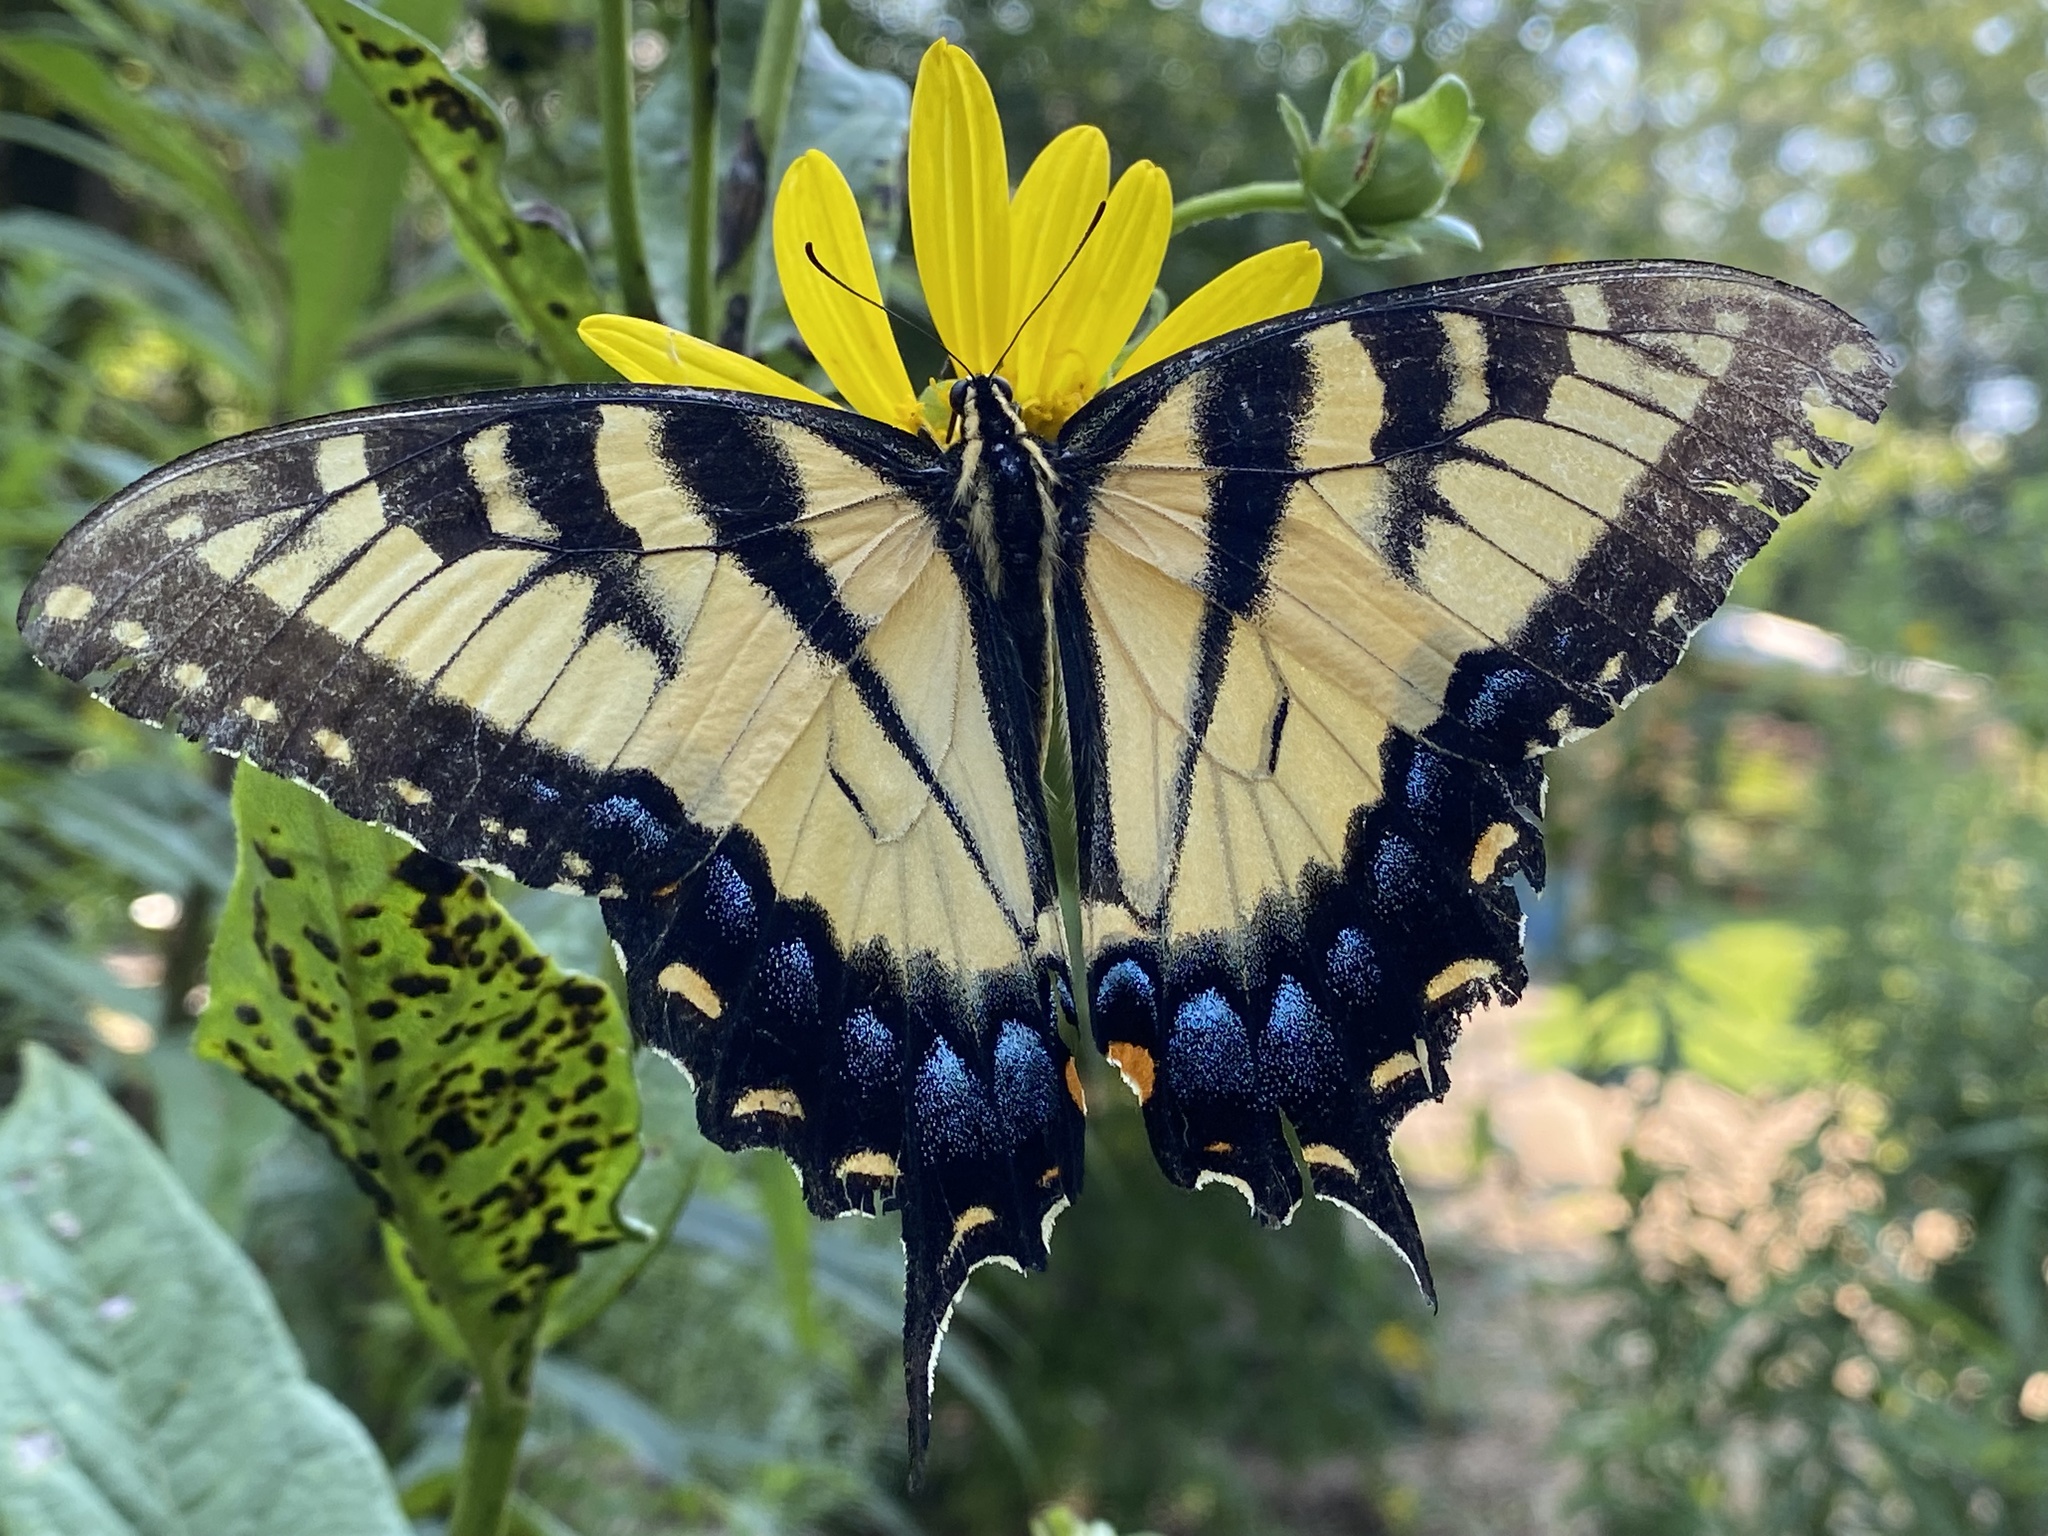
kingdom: Animalia
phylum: Arthropoda
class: Insecta
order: Lepidoptera
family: Papilionidae
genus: Papilio
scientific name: Papilio glaucus
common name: Tiger swallowtail
